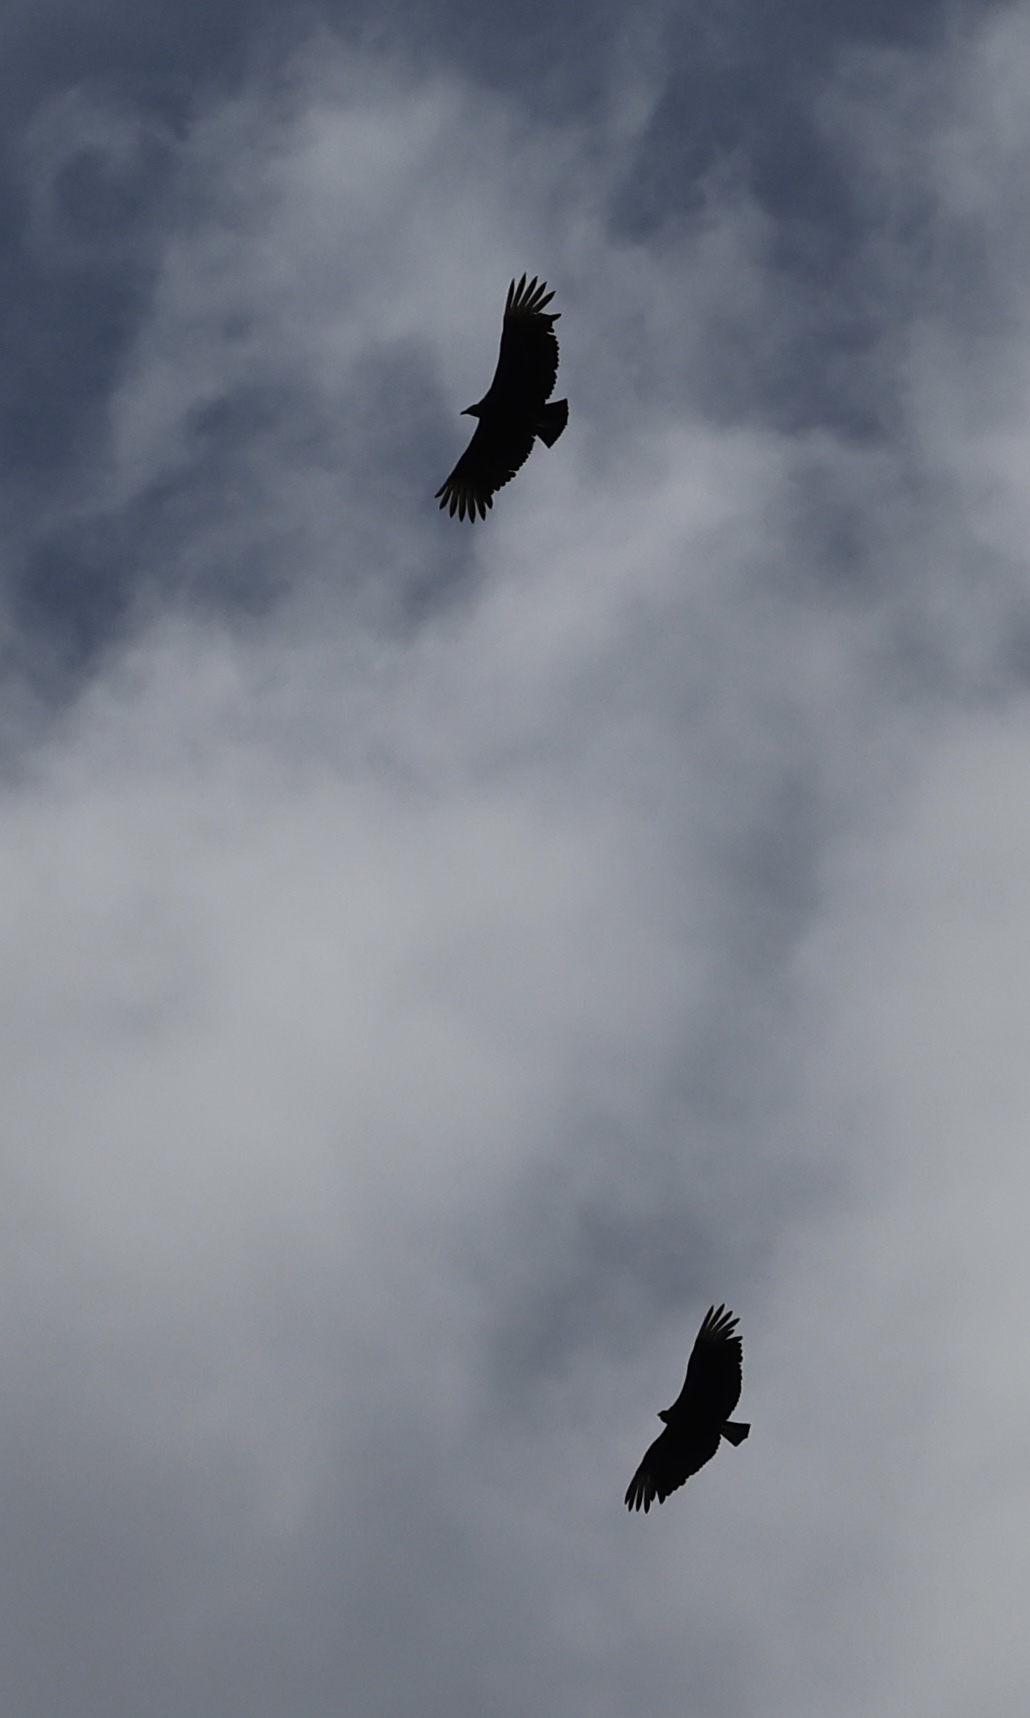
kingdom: Animalia
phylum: Chordata
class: Aves
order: Accipitriformes
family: Cathartidae
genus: Coragyps
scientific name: Coragyps atratus
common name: Black vulture
